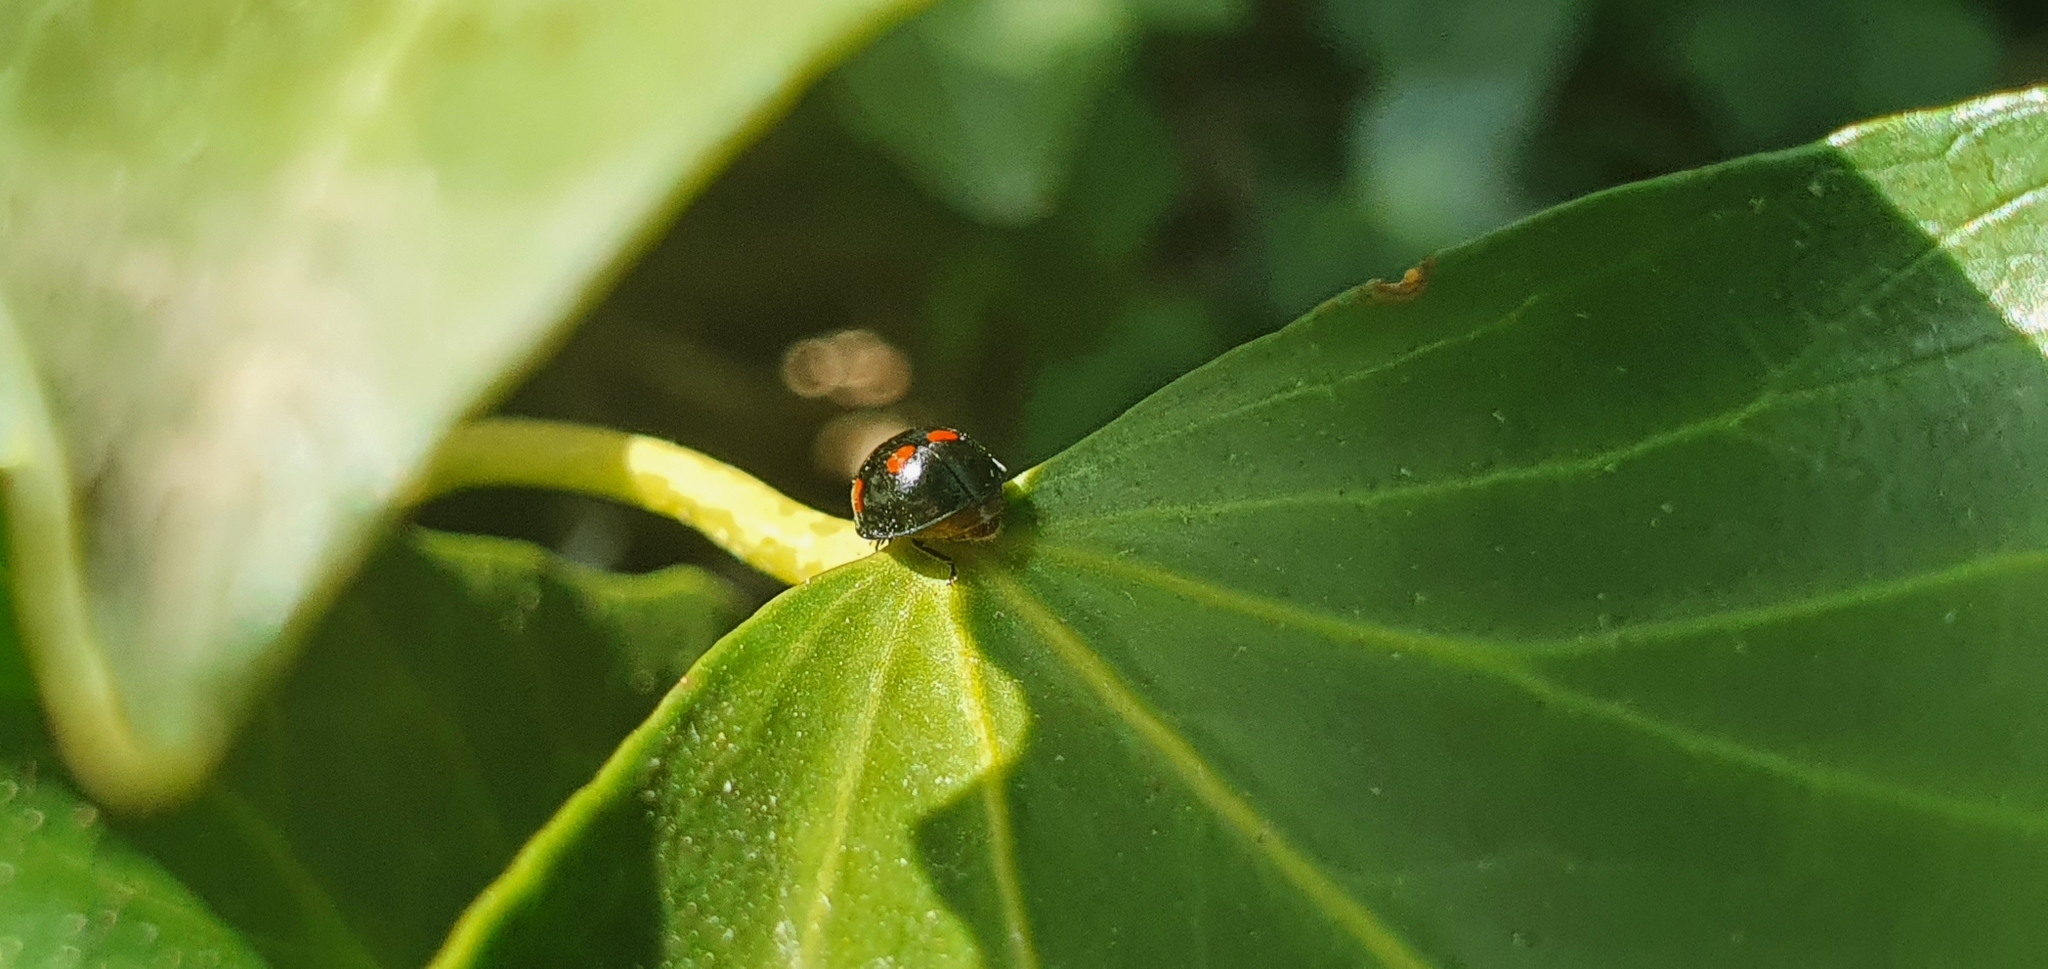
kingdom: Animalia
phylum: Arthropoda
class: Insecta
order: Coleoptera
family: Coccinellidae
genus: Brumus
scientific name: Brumus quadripustulatus
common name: Ladybird beetle
